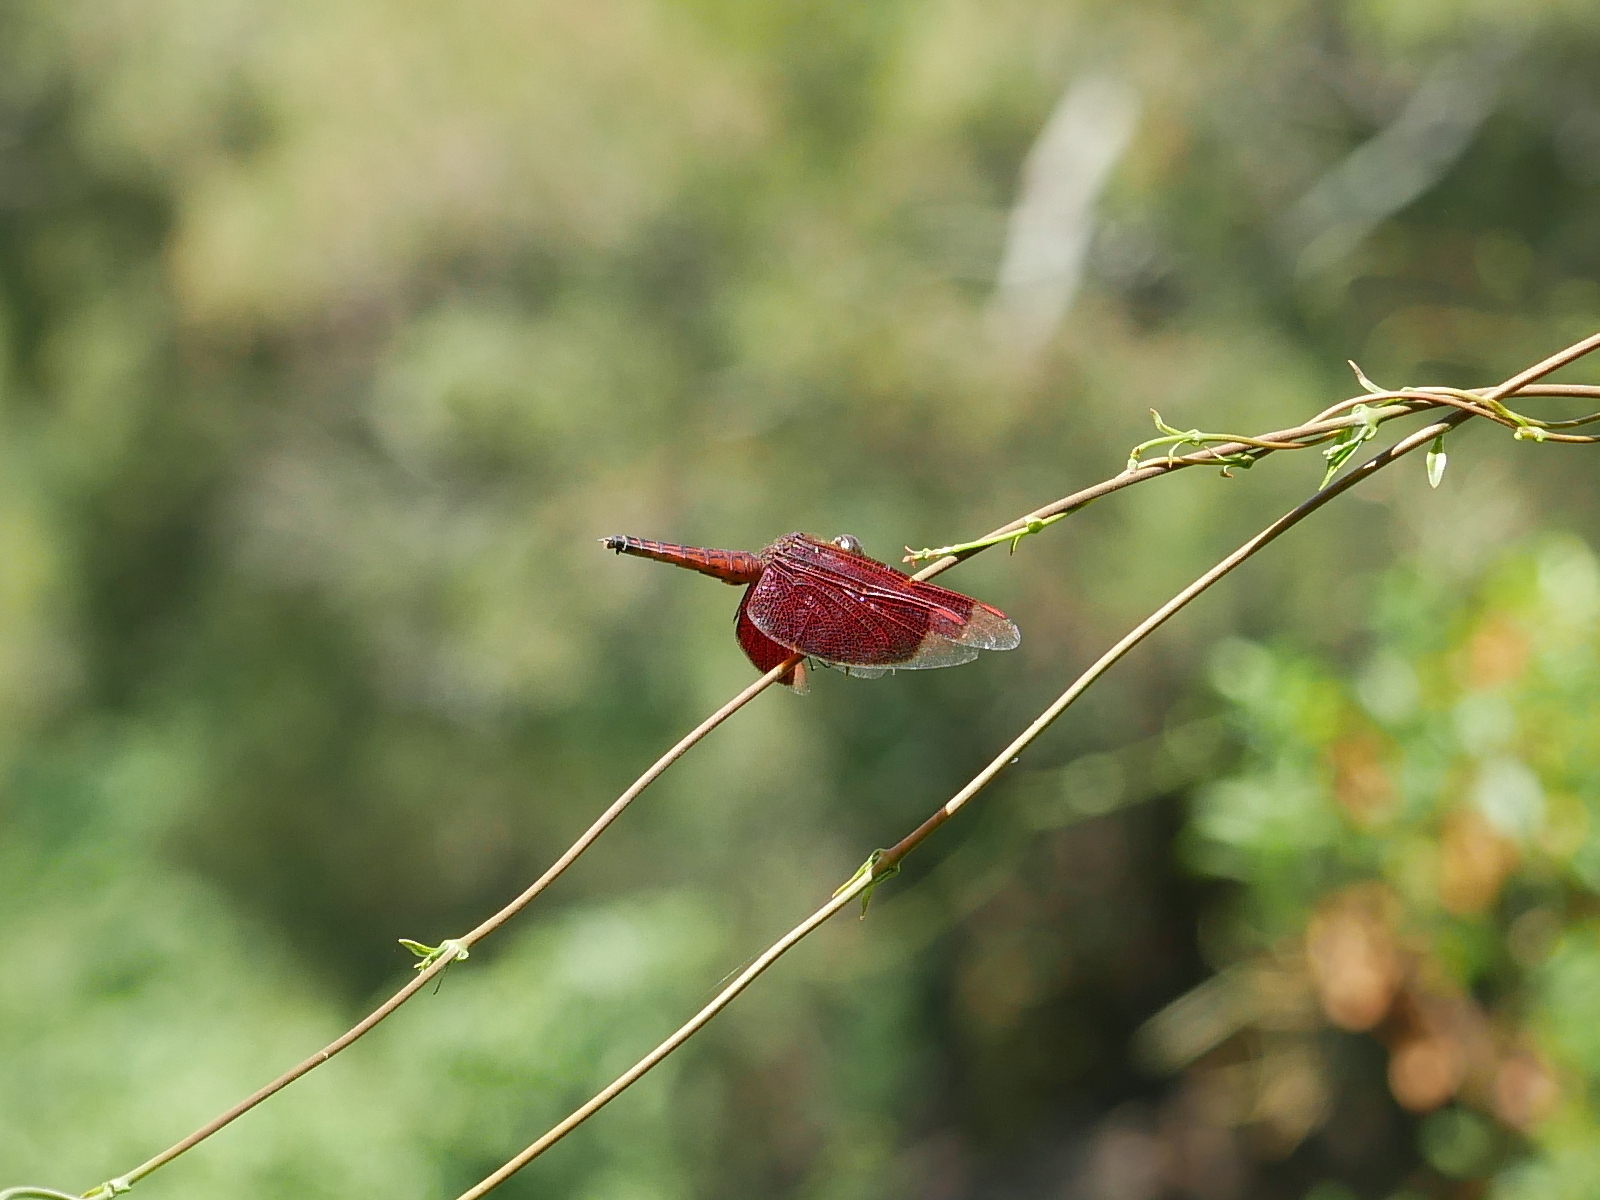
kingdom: Animalia
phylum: Arthropoda
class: Insecta
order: Odonata
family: Libellulidae
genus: Neurothemis
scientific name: Neurothemis taiwanensis
